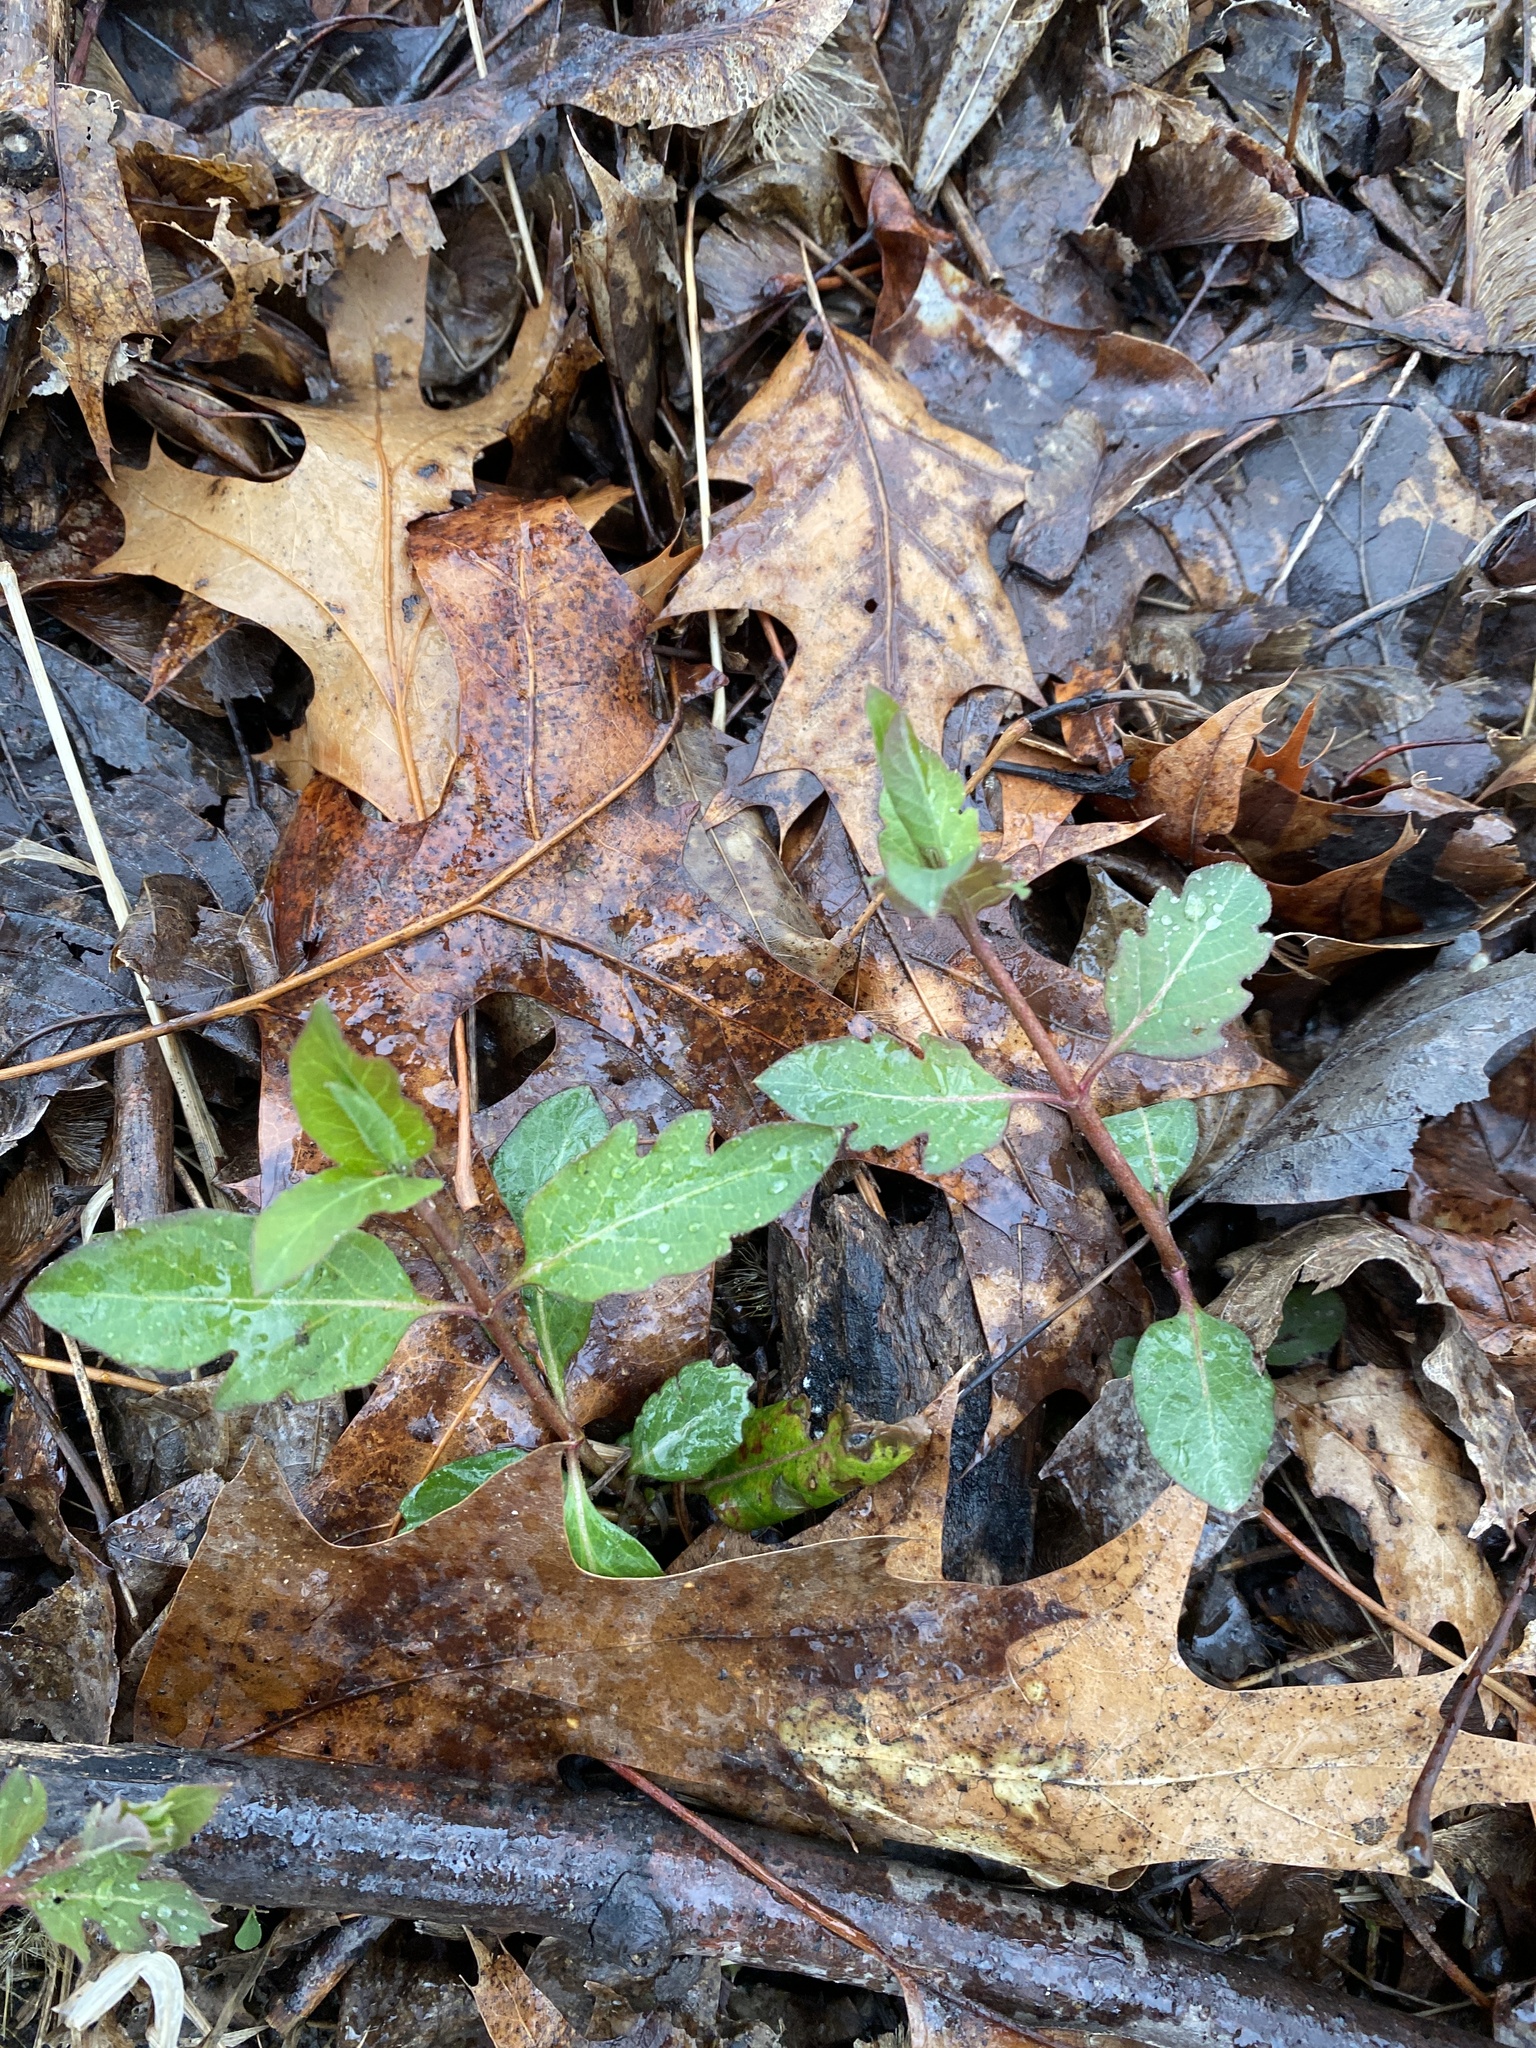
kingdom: Plantae
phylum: Tracheophyta
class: Magnoliopsida
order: Dipsacales
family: Caprifoliaceae
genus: Lonicera
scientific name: Lonicera japonica
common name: Japanese honeysuckle
